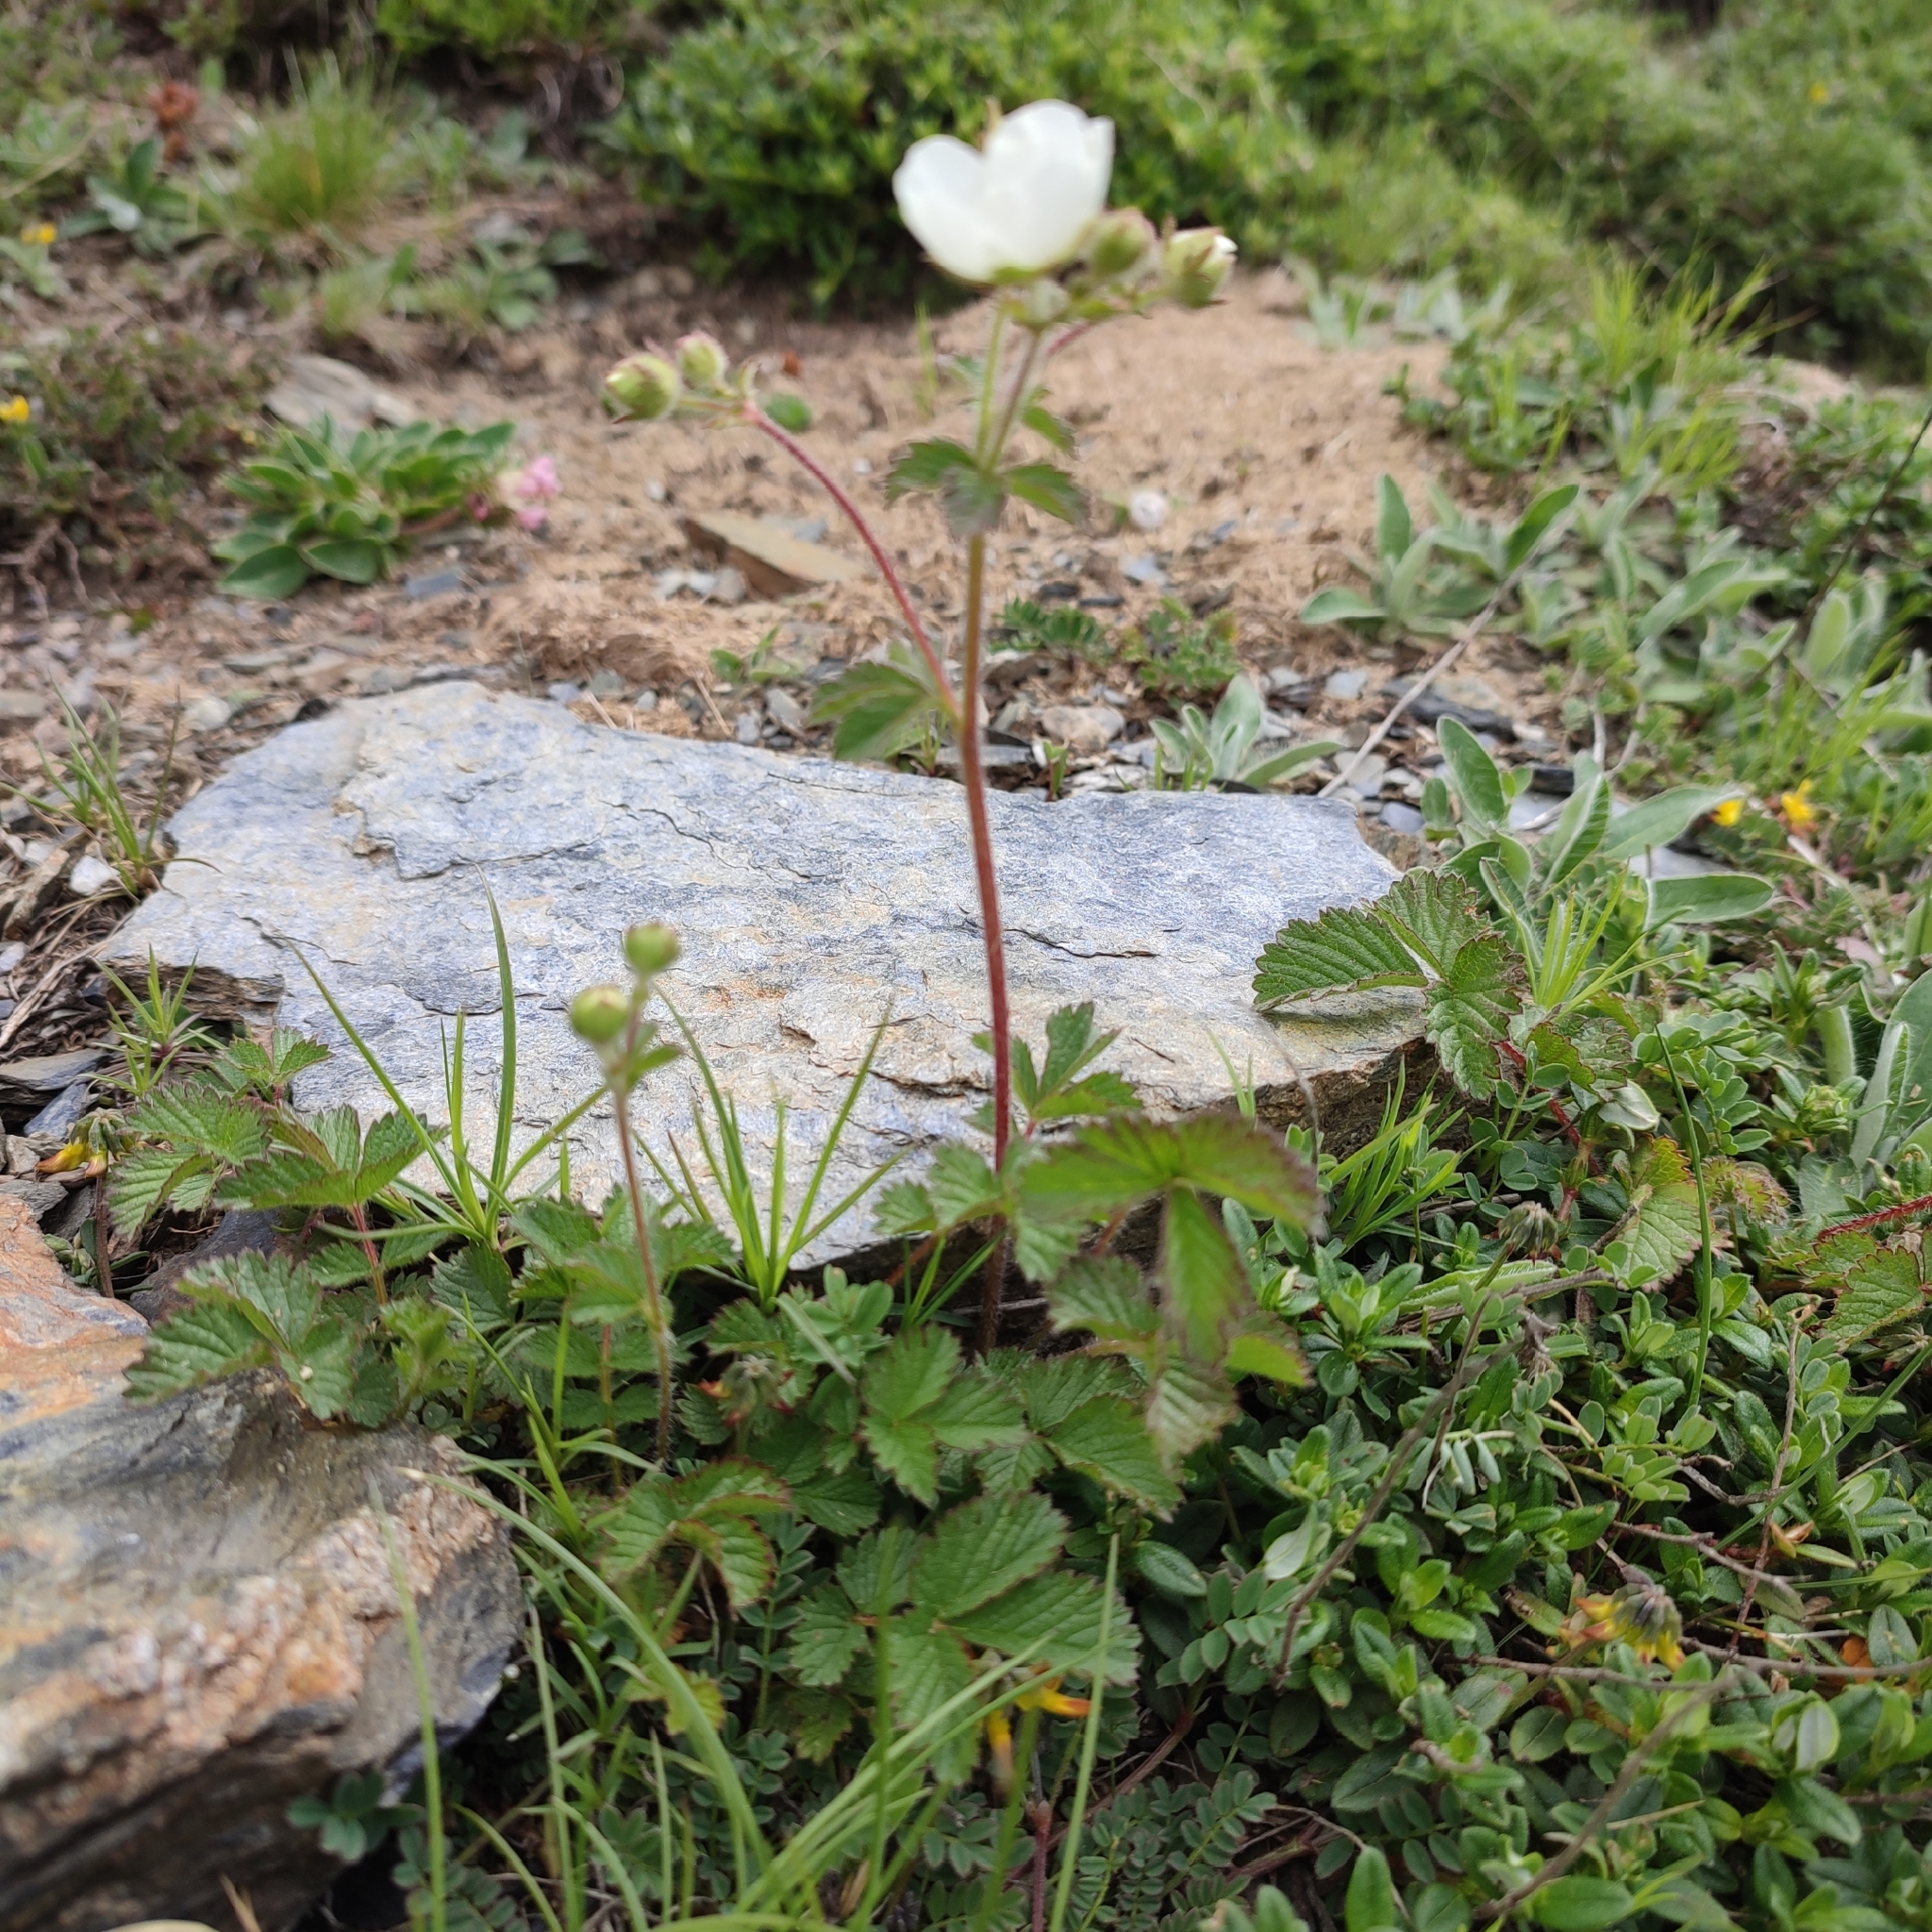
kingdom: Plantae
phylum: Tracheophyta
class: Magnoliopsida
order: Rosales
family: Rosaceae
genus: Drymocallis
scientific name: Drymocallis rupestris
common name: Rock cinquefoil
